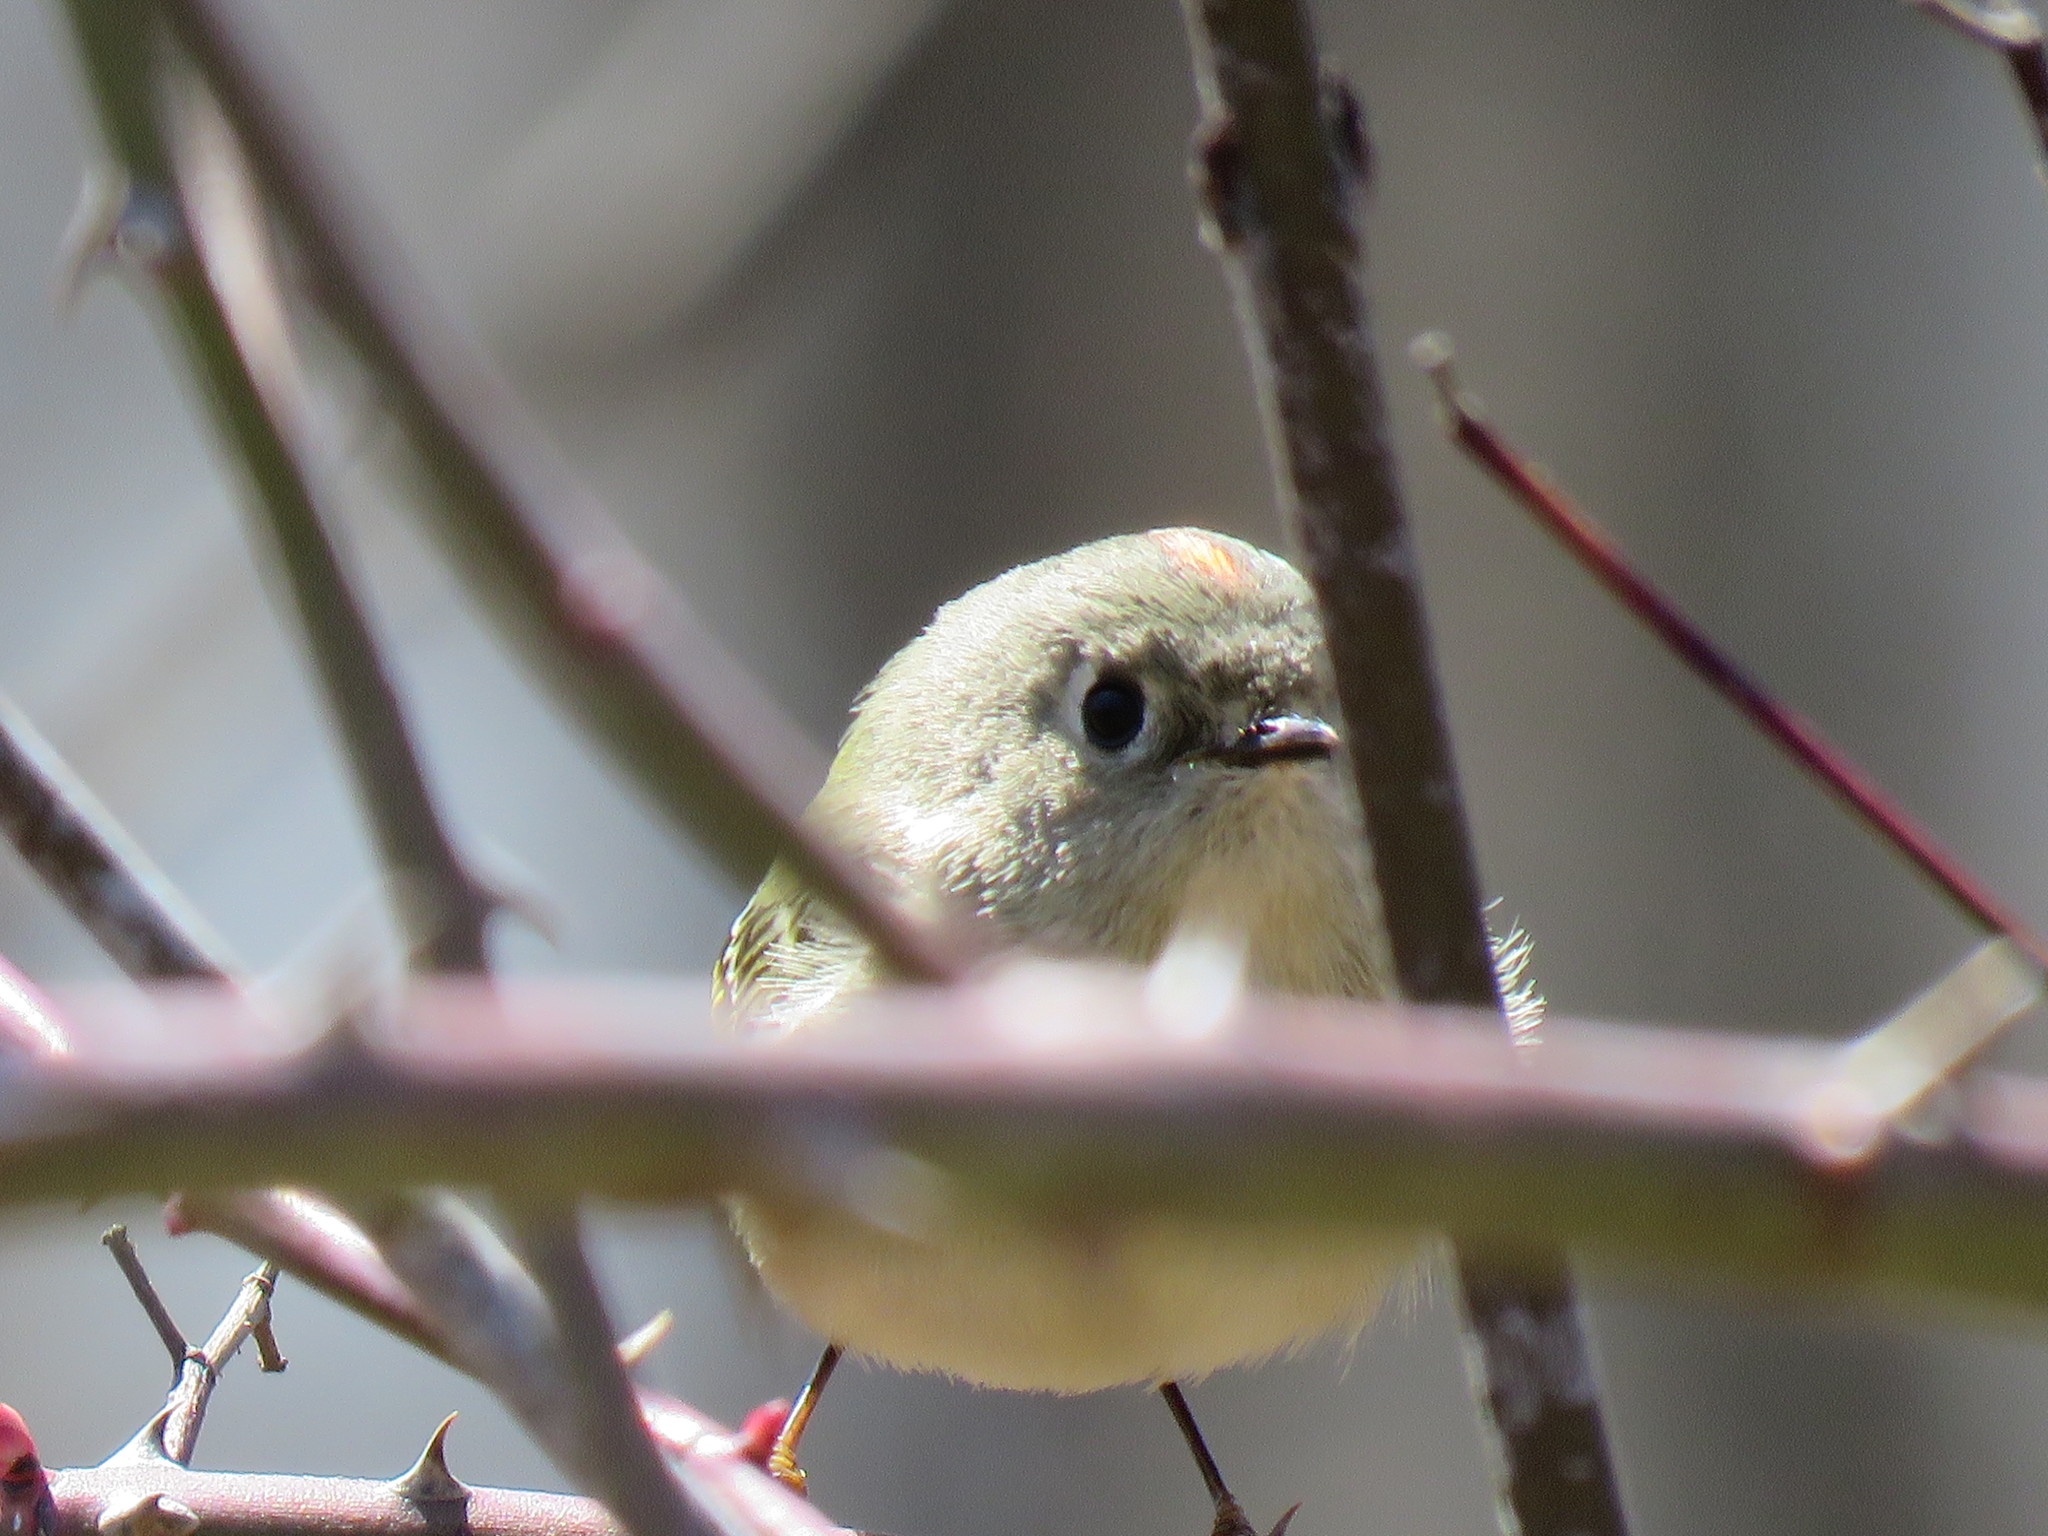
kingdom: Animalia
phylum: Chordata
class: Aves
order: Passeriformes
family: Regulidae
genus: Regulus
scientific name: Regulus calendula
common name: Ruby-crowned kinglet
